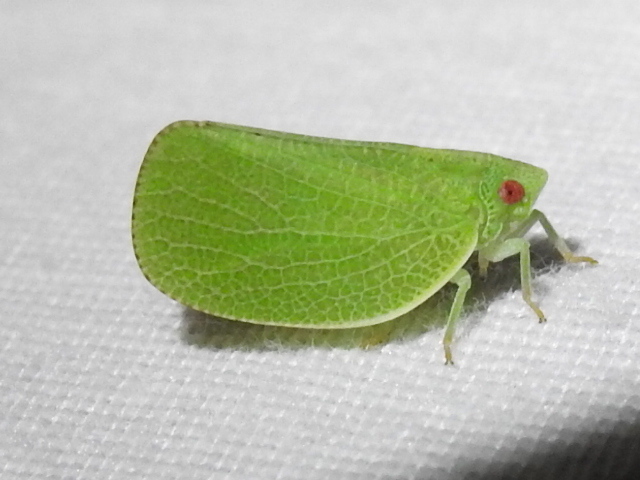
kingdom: Animalia
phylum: Arthropoda
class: Insecta
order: Hemiptera
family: Acanaloniidae
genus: Acanalonia
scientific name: Acanalonia conica
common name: Green cone-headed planthopper
